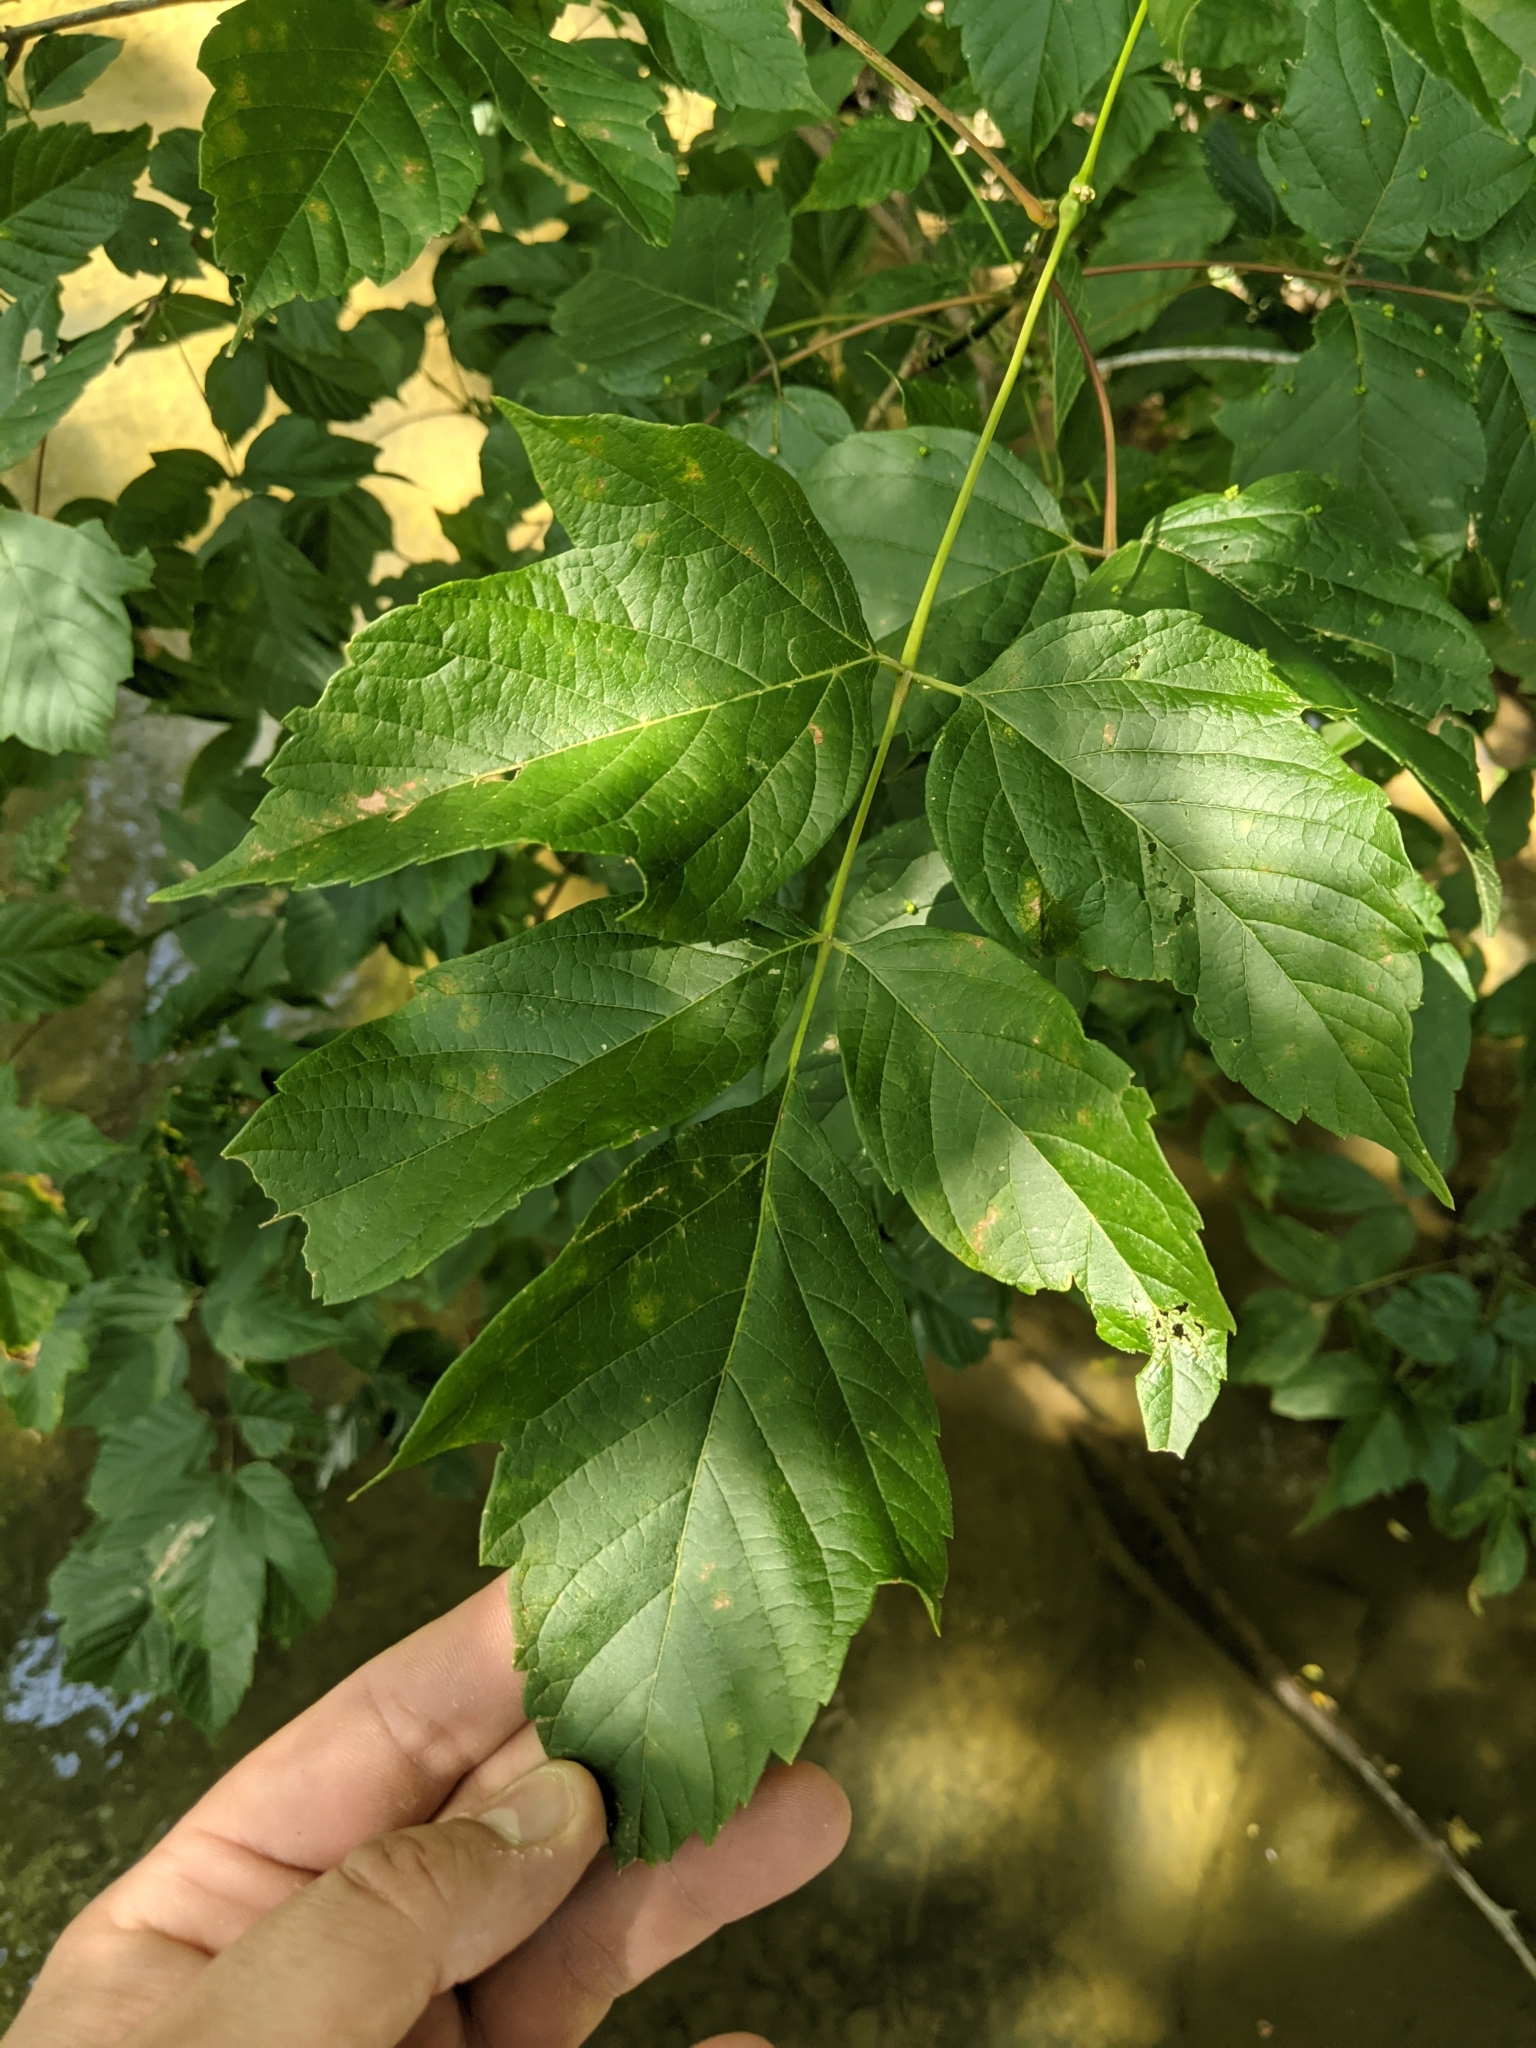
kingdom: Plantae
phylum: Tracheophyta
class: Magnoliopsida
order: Sapindales
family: Sapindaceae
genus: Acer
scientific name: Acer negundo
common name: Ashleaf maple
